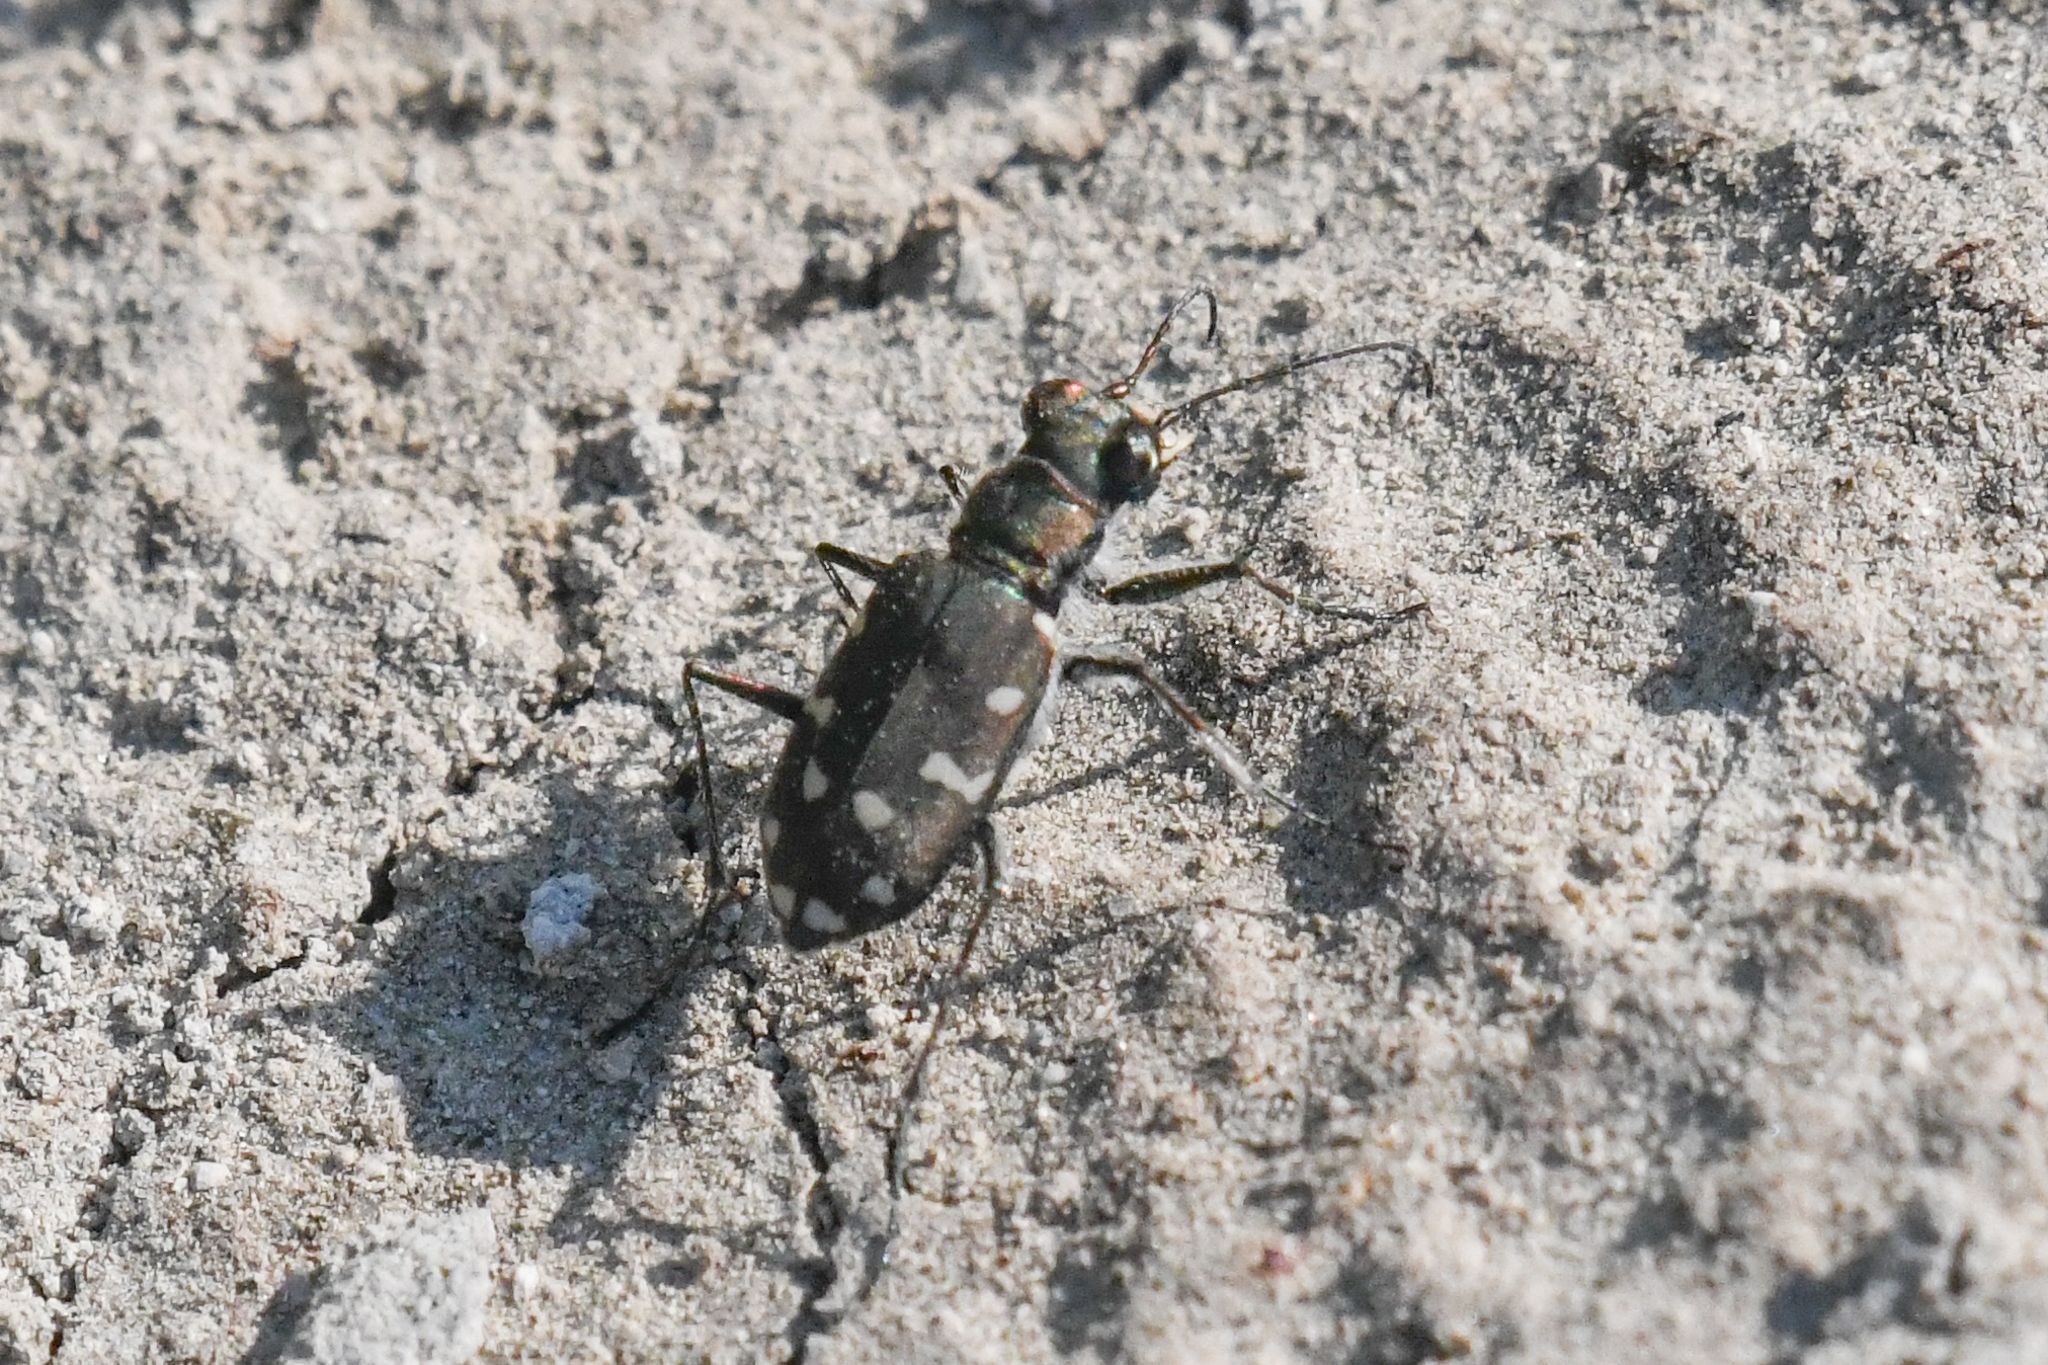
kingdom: Animalia
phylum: Arthropoda
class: Insecta
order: Coleoptera
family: Carabidae
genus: Cicindela
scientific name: Cicindela oregona
